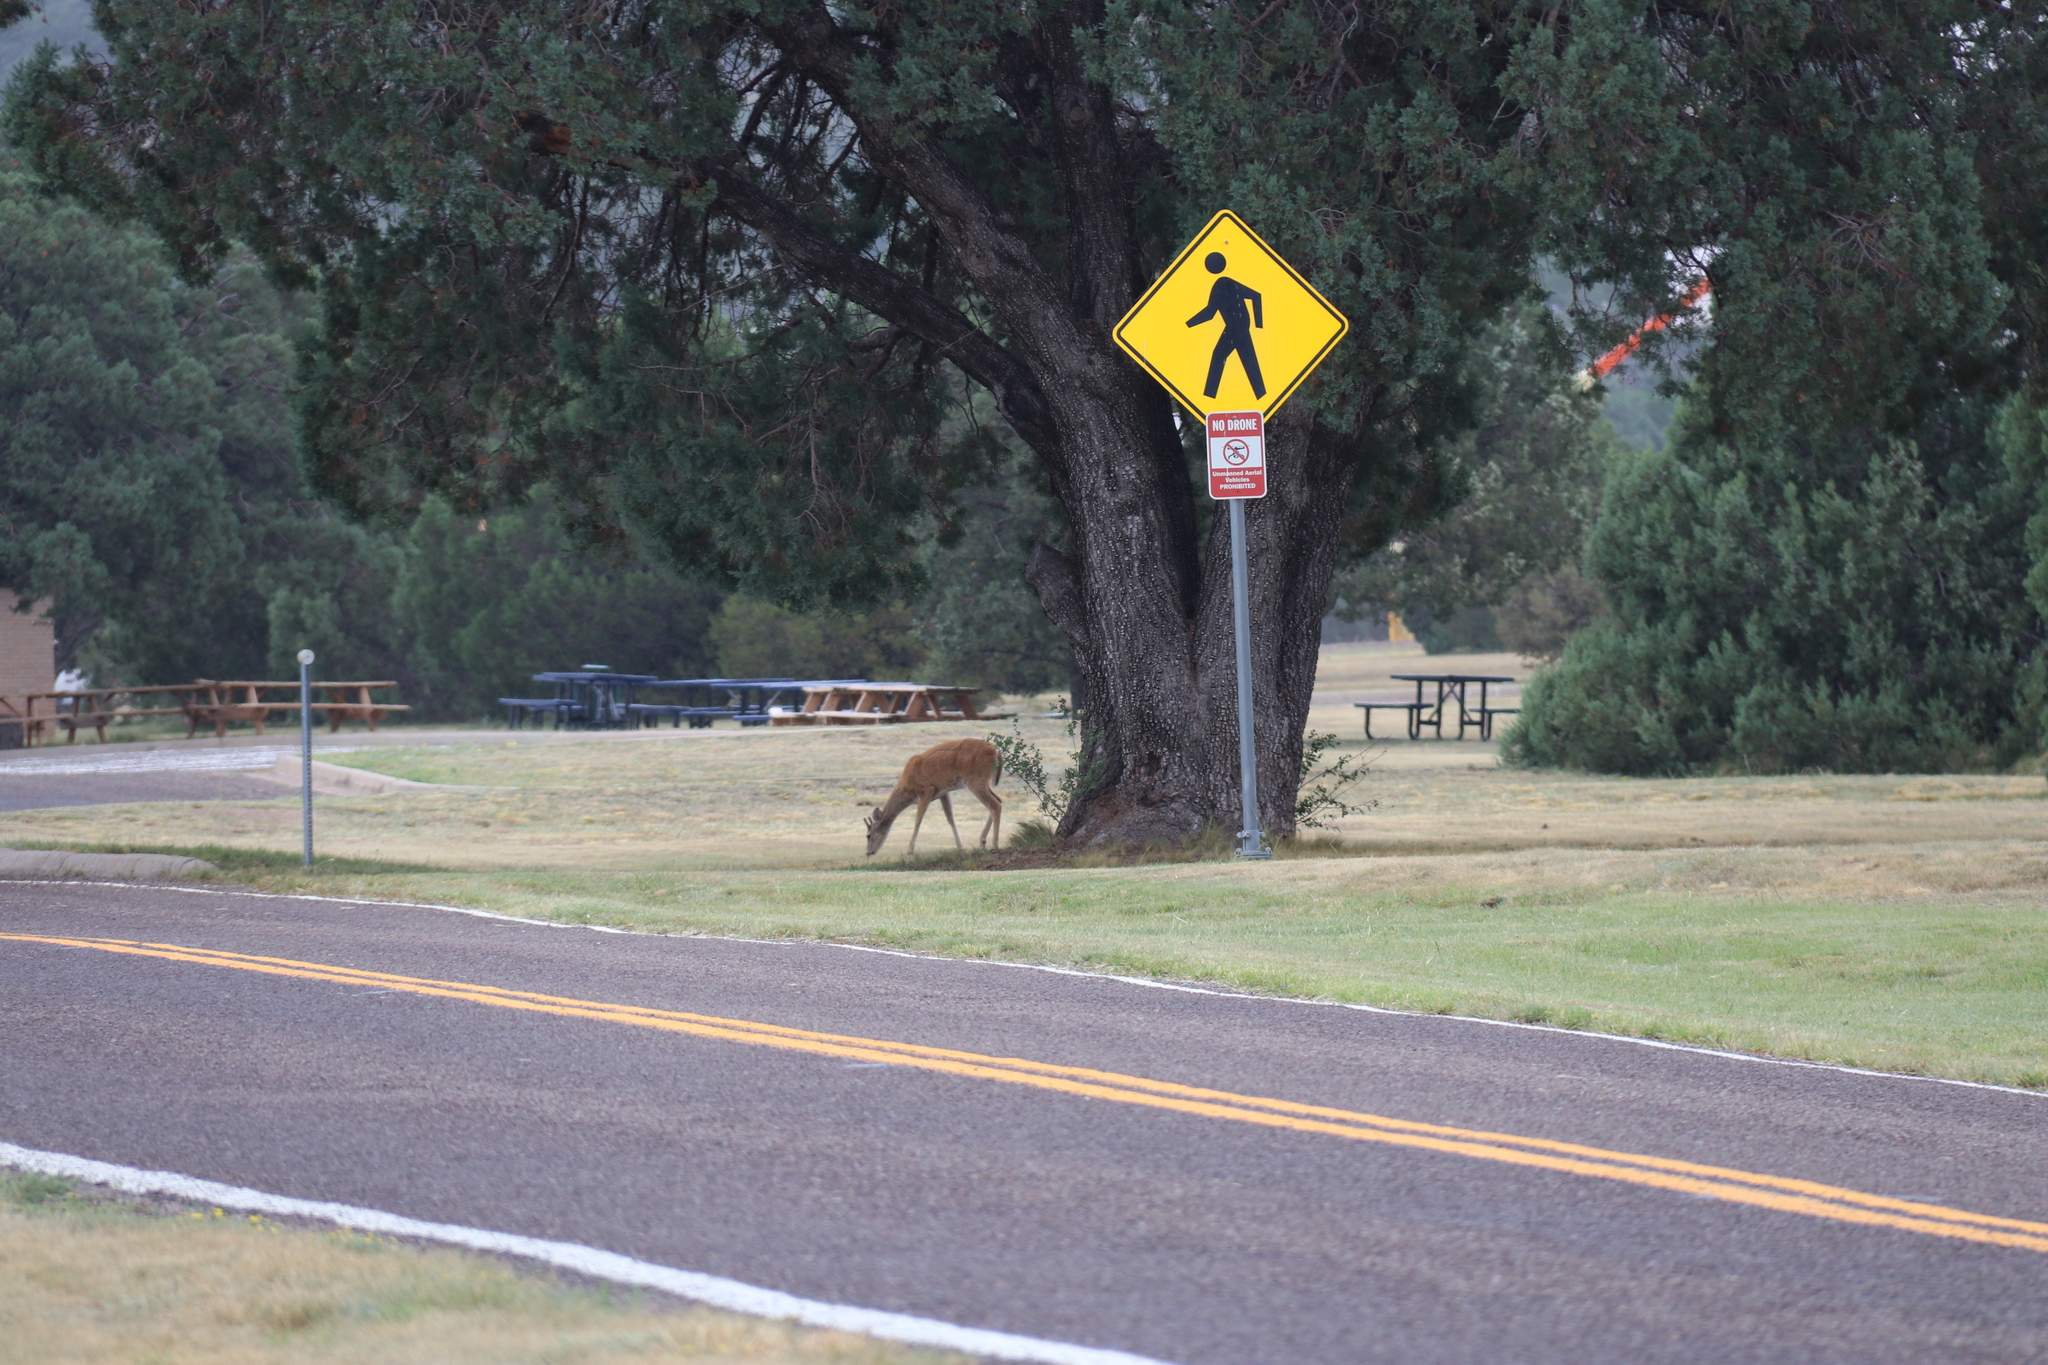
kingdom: Animalia
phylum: Chordata
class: Mammalia
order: Artiodactyla
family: Cervidae
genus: Odocoileus
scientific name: Odocoileus virginianus
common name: White-tailed deer
